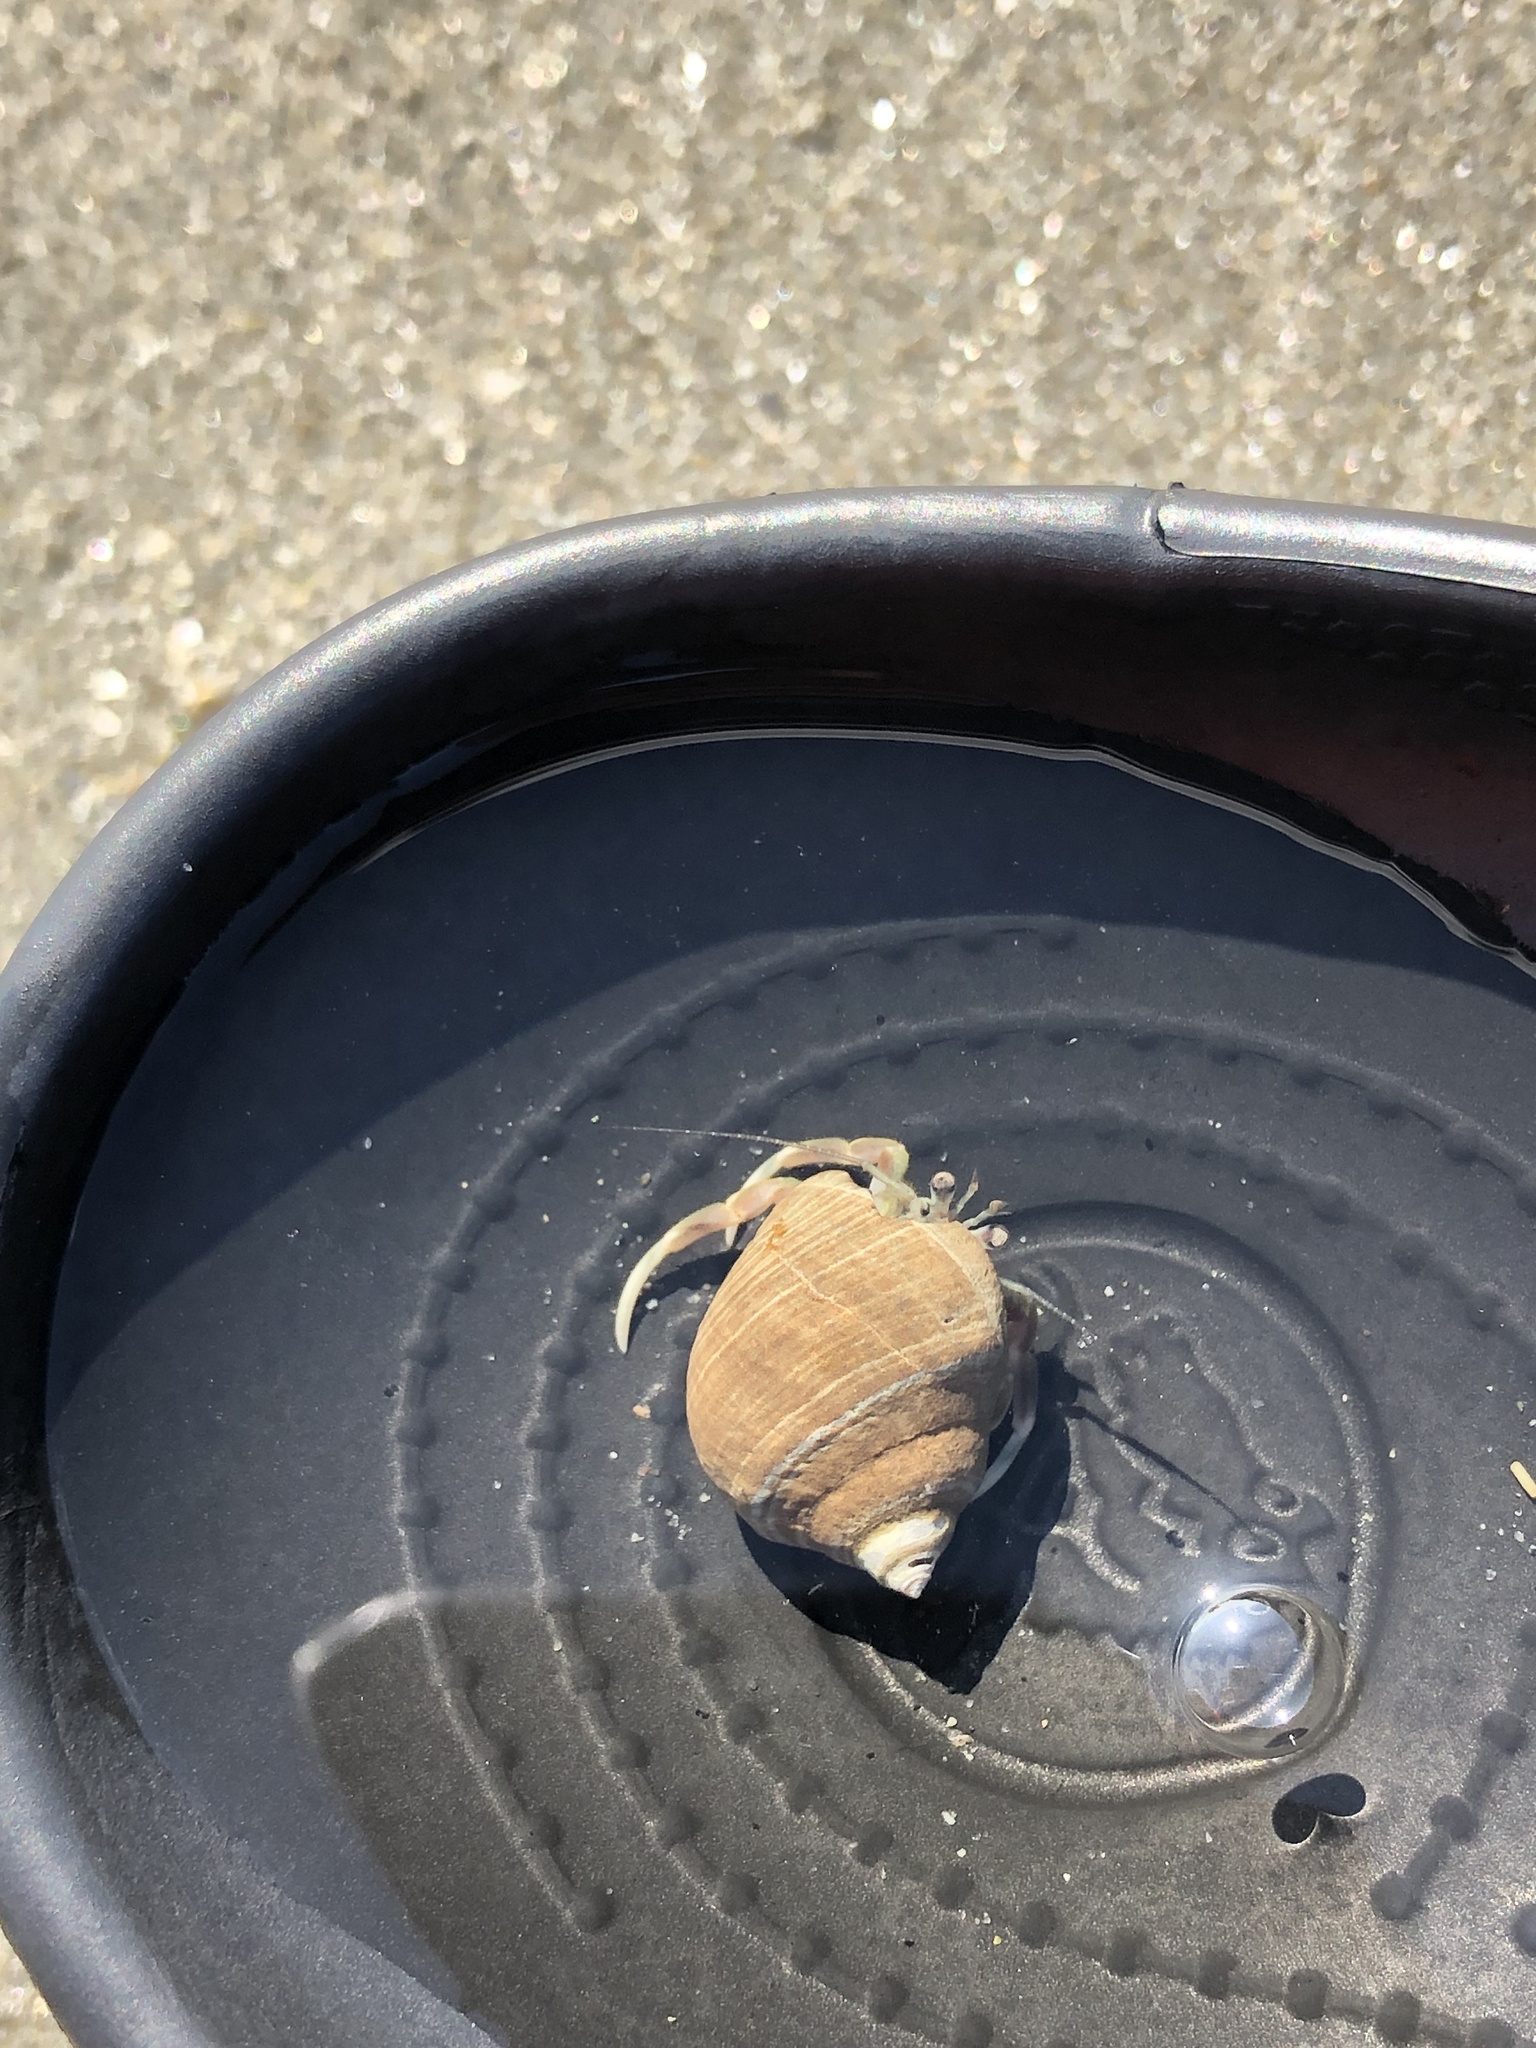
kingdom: Animalia
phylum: Arthropoda
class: Malacostraca
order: Decapoda
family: Paguridae
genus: Pagurus
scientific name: Pagurus longicarpus
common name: Long-armed hermit crab
